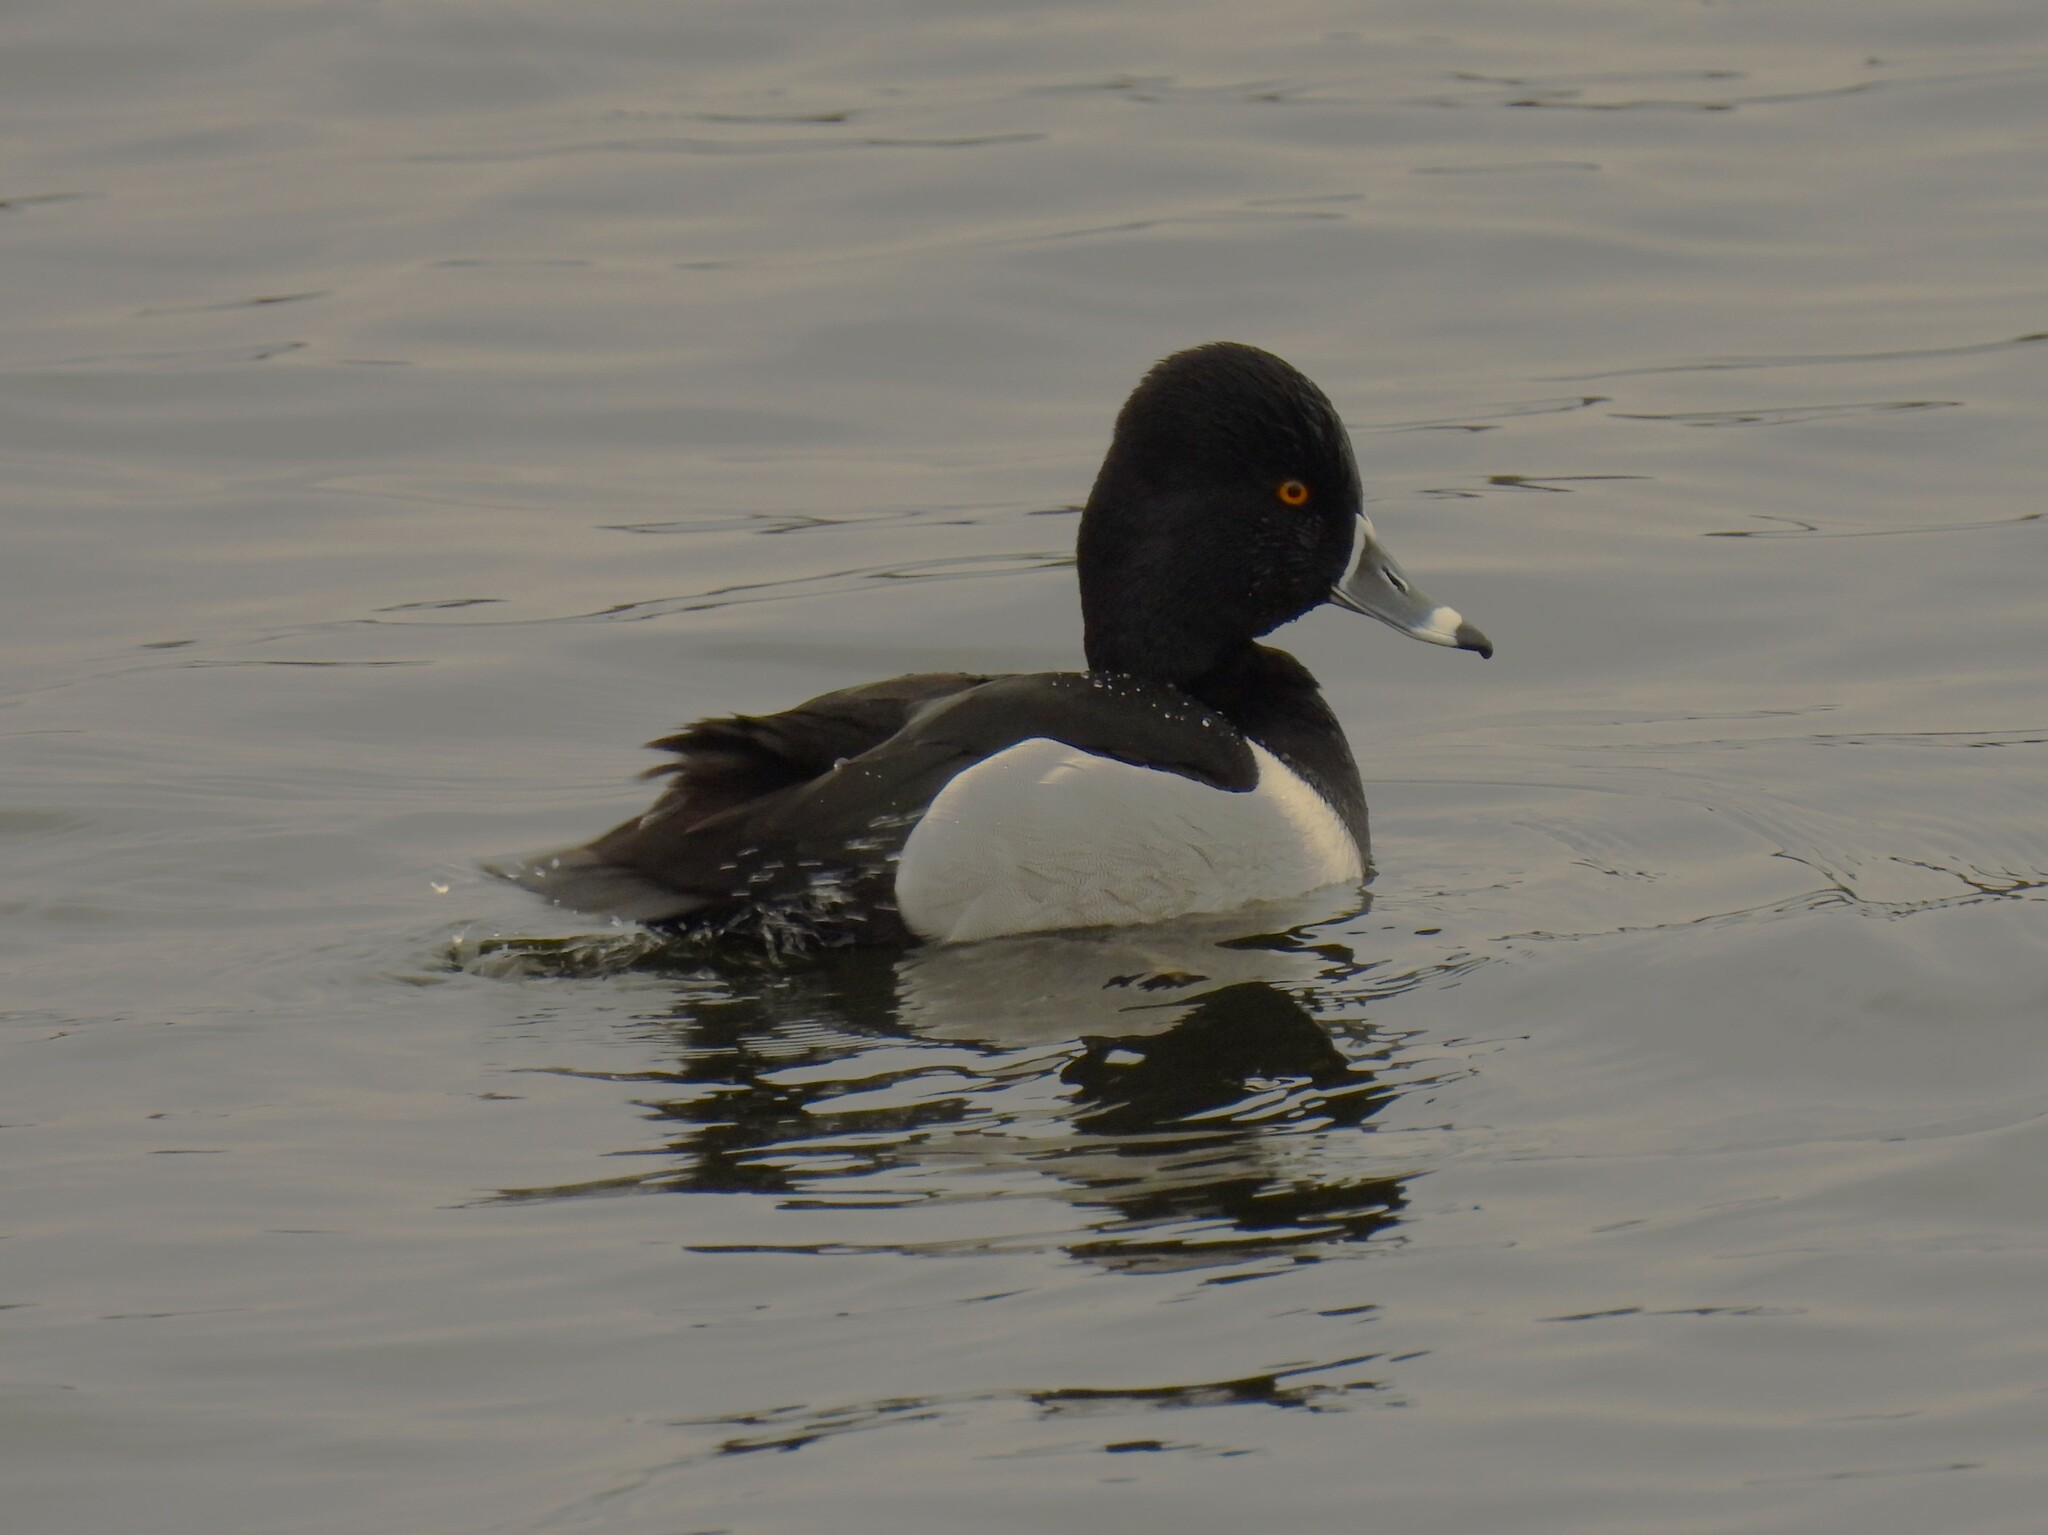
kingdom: Animalia
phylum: Chordata
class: Aves
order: Anseriformes
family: Anatidae
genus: Aythya
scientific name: Aythya collaris
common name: Ring-necked duck
